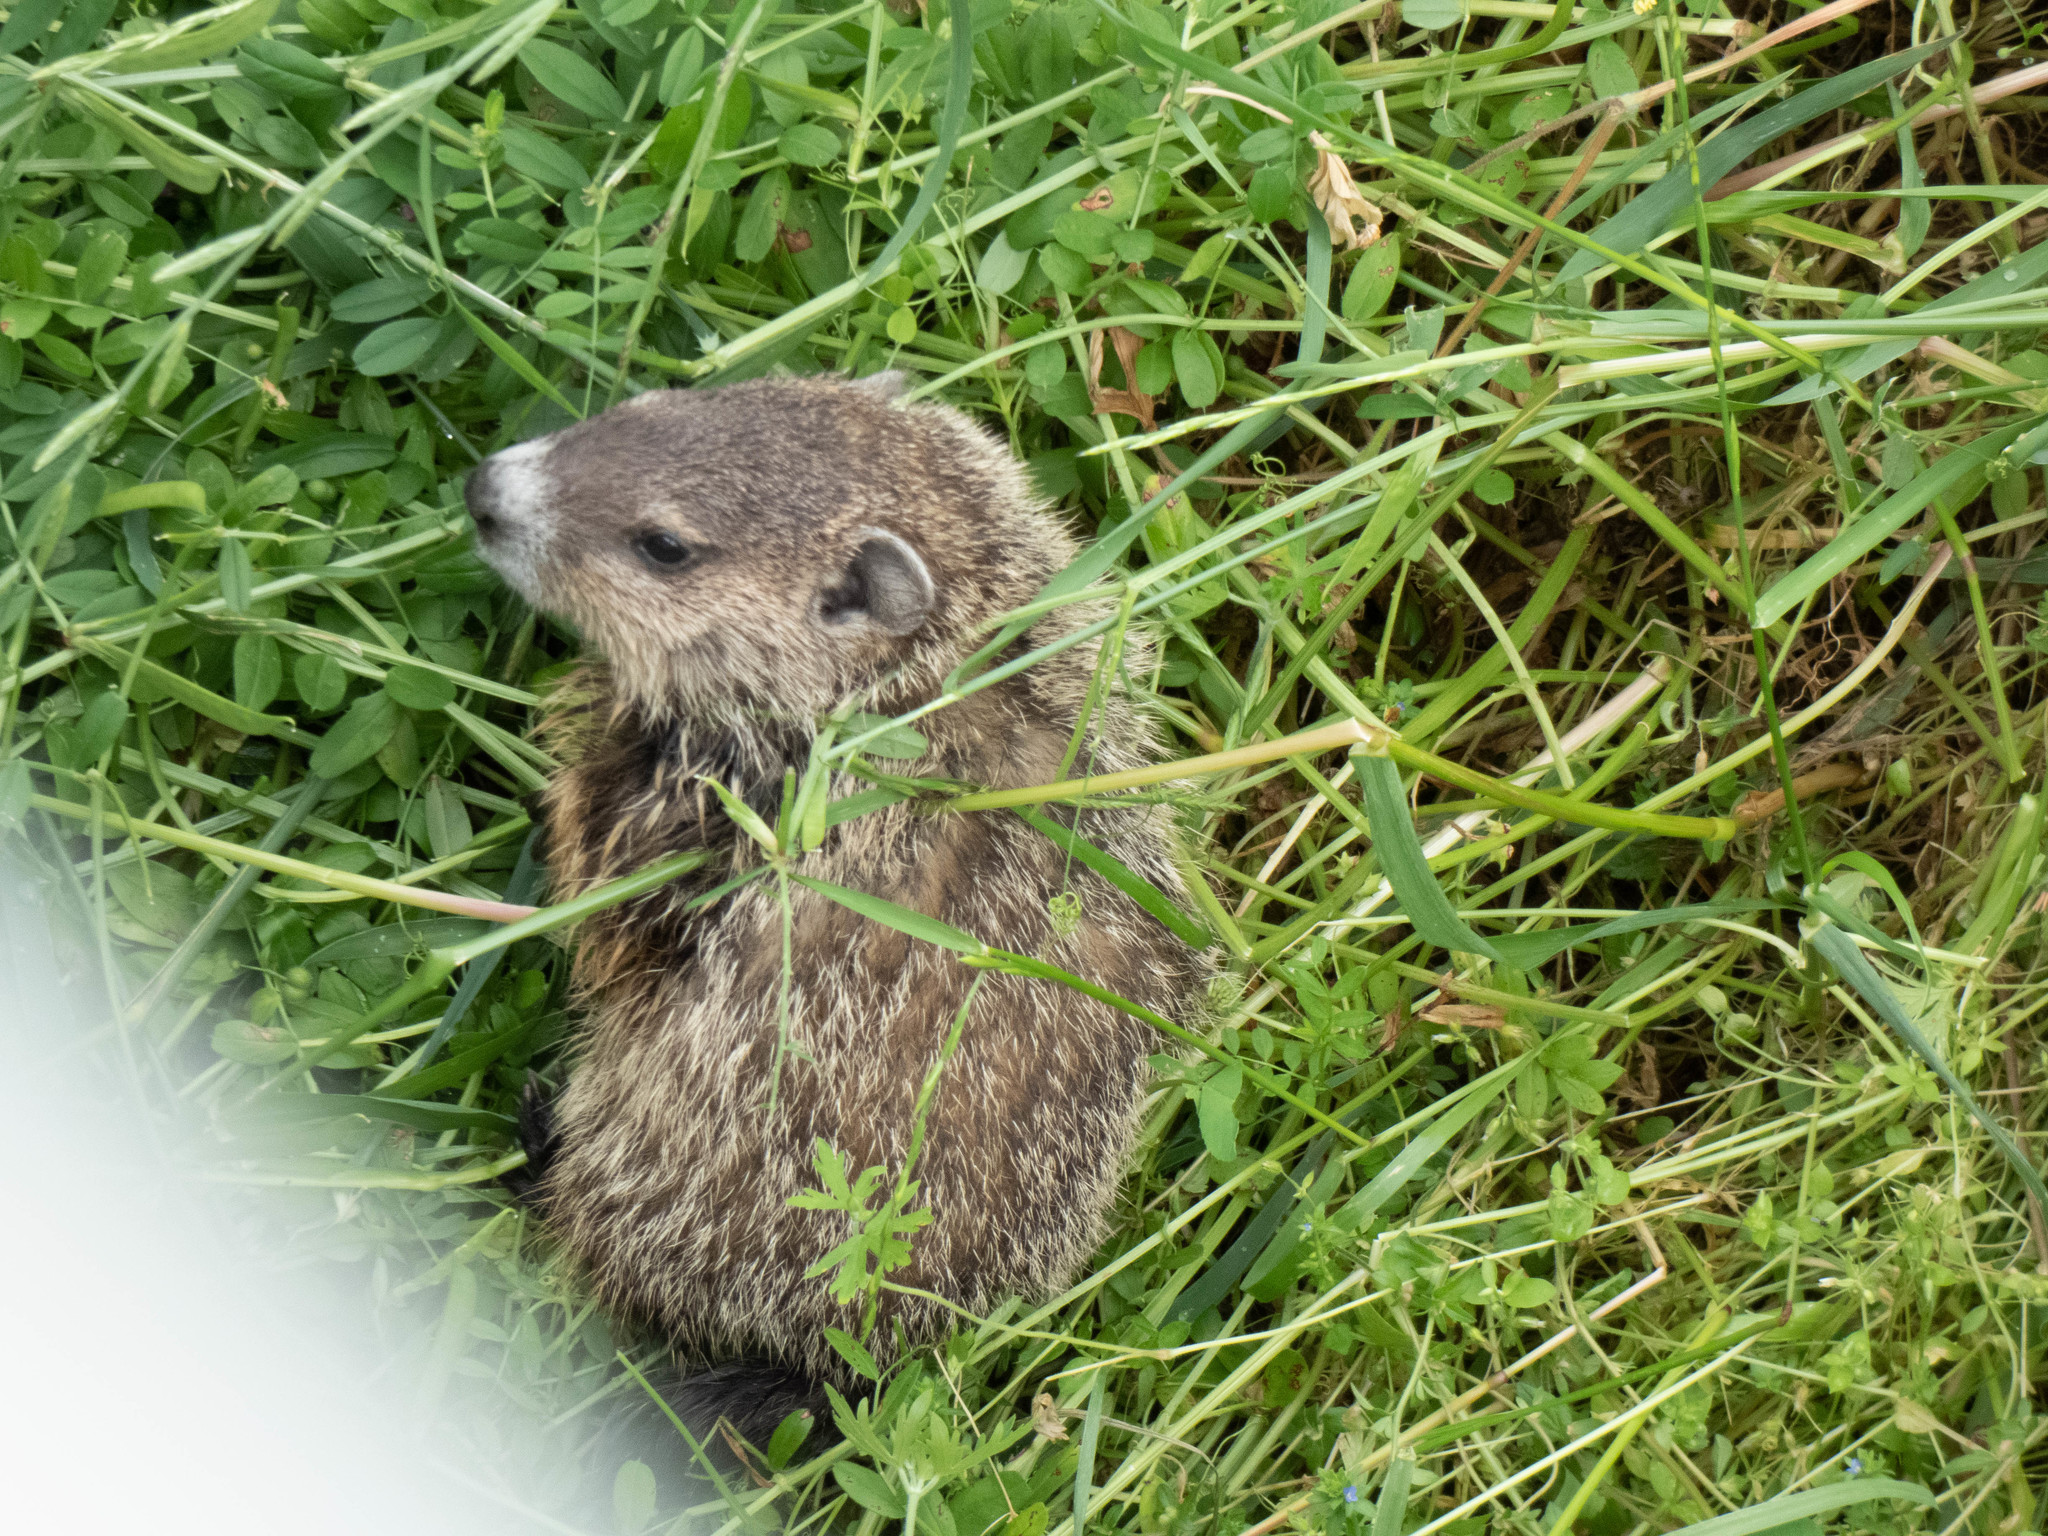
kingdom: Animalia
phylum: Chordata
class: Mammalia
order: Rodentia
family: Sciuridae
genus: Marmota
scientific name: Marmota monax
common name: Groundhog
